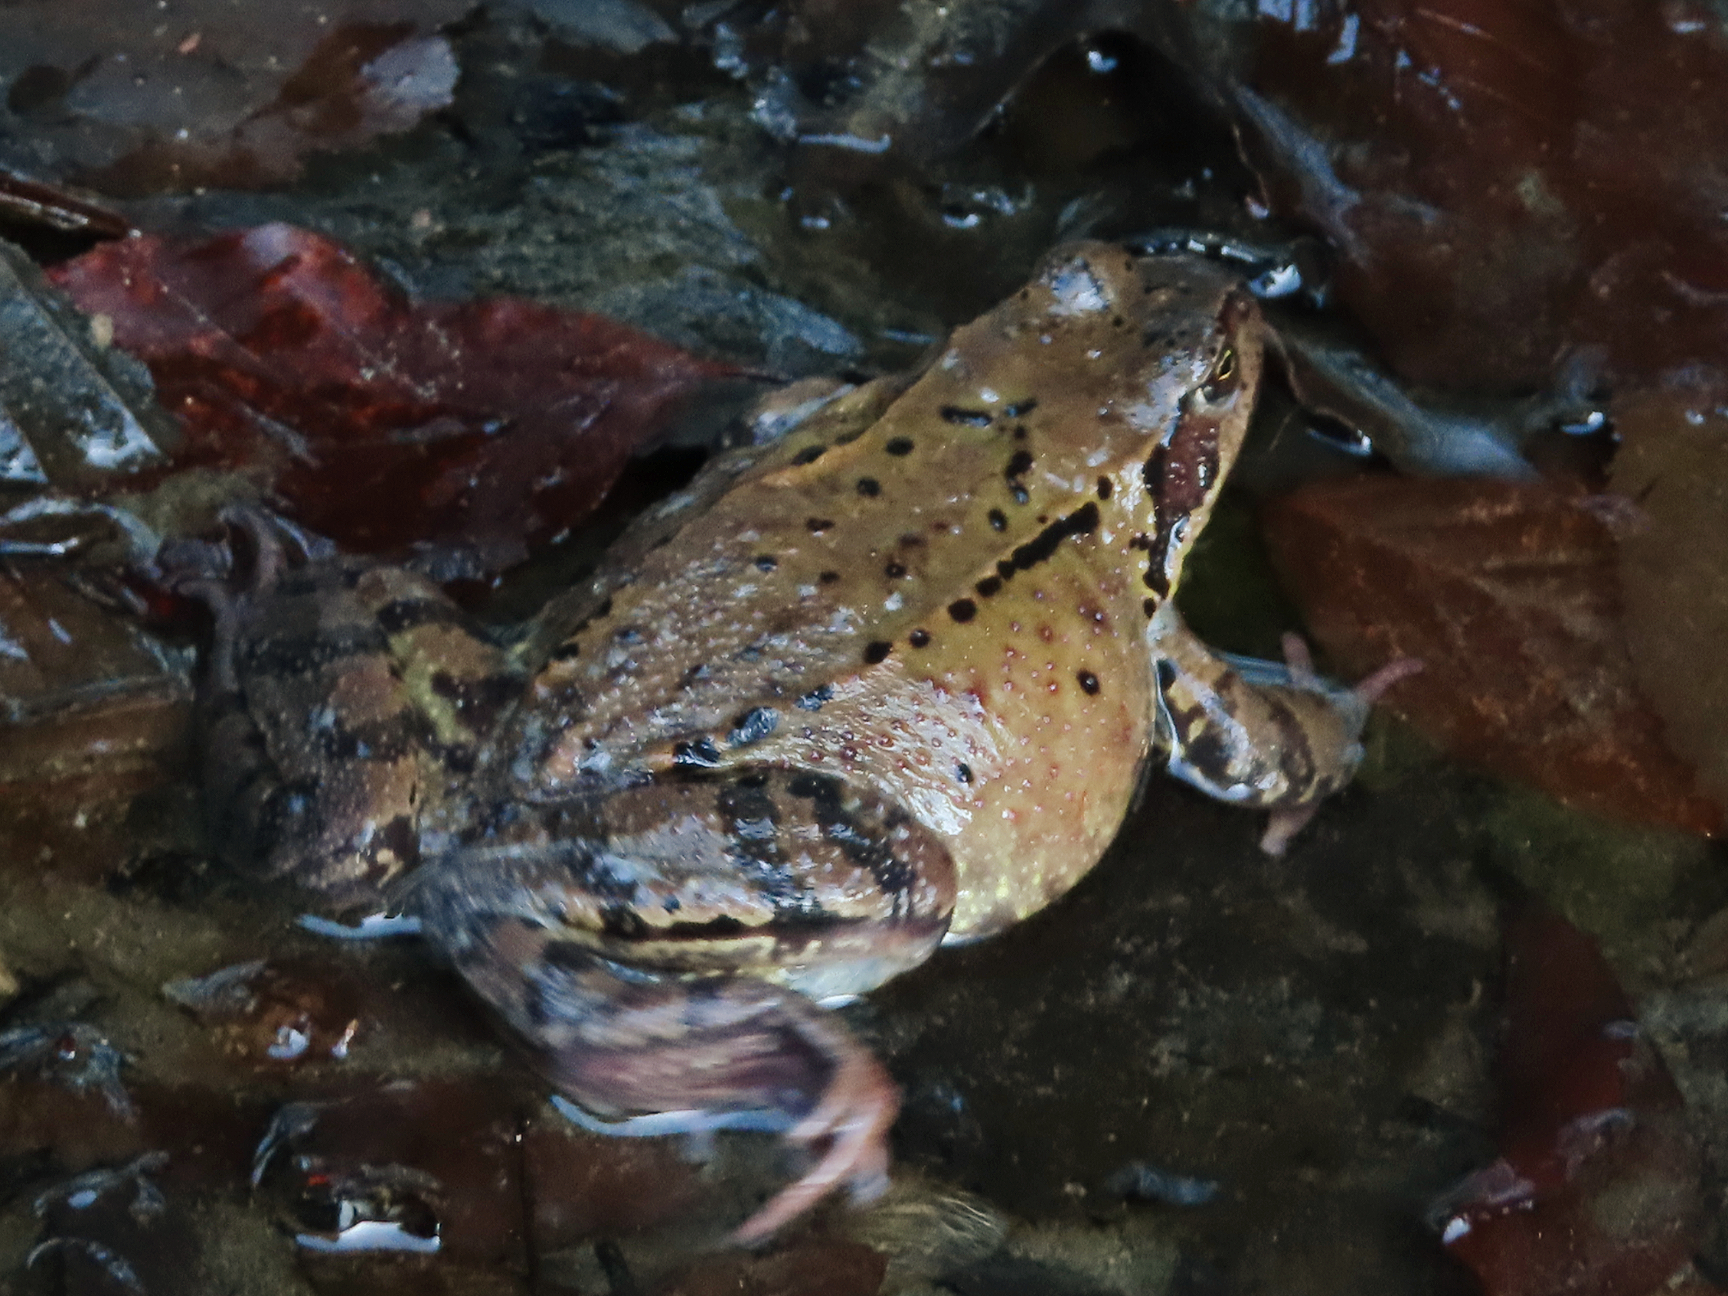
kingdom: Animalia
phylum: Chordata
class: Amphibia
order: Anura
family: Ranidae
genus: Rana
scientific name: Rana temporaria
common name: Common frog
